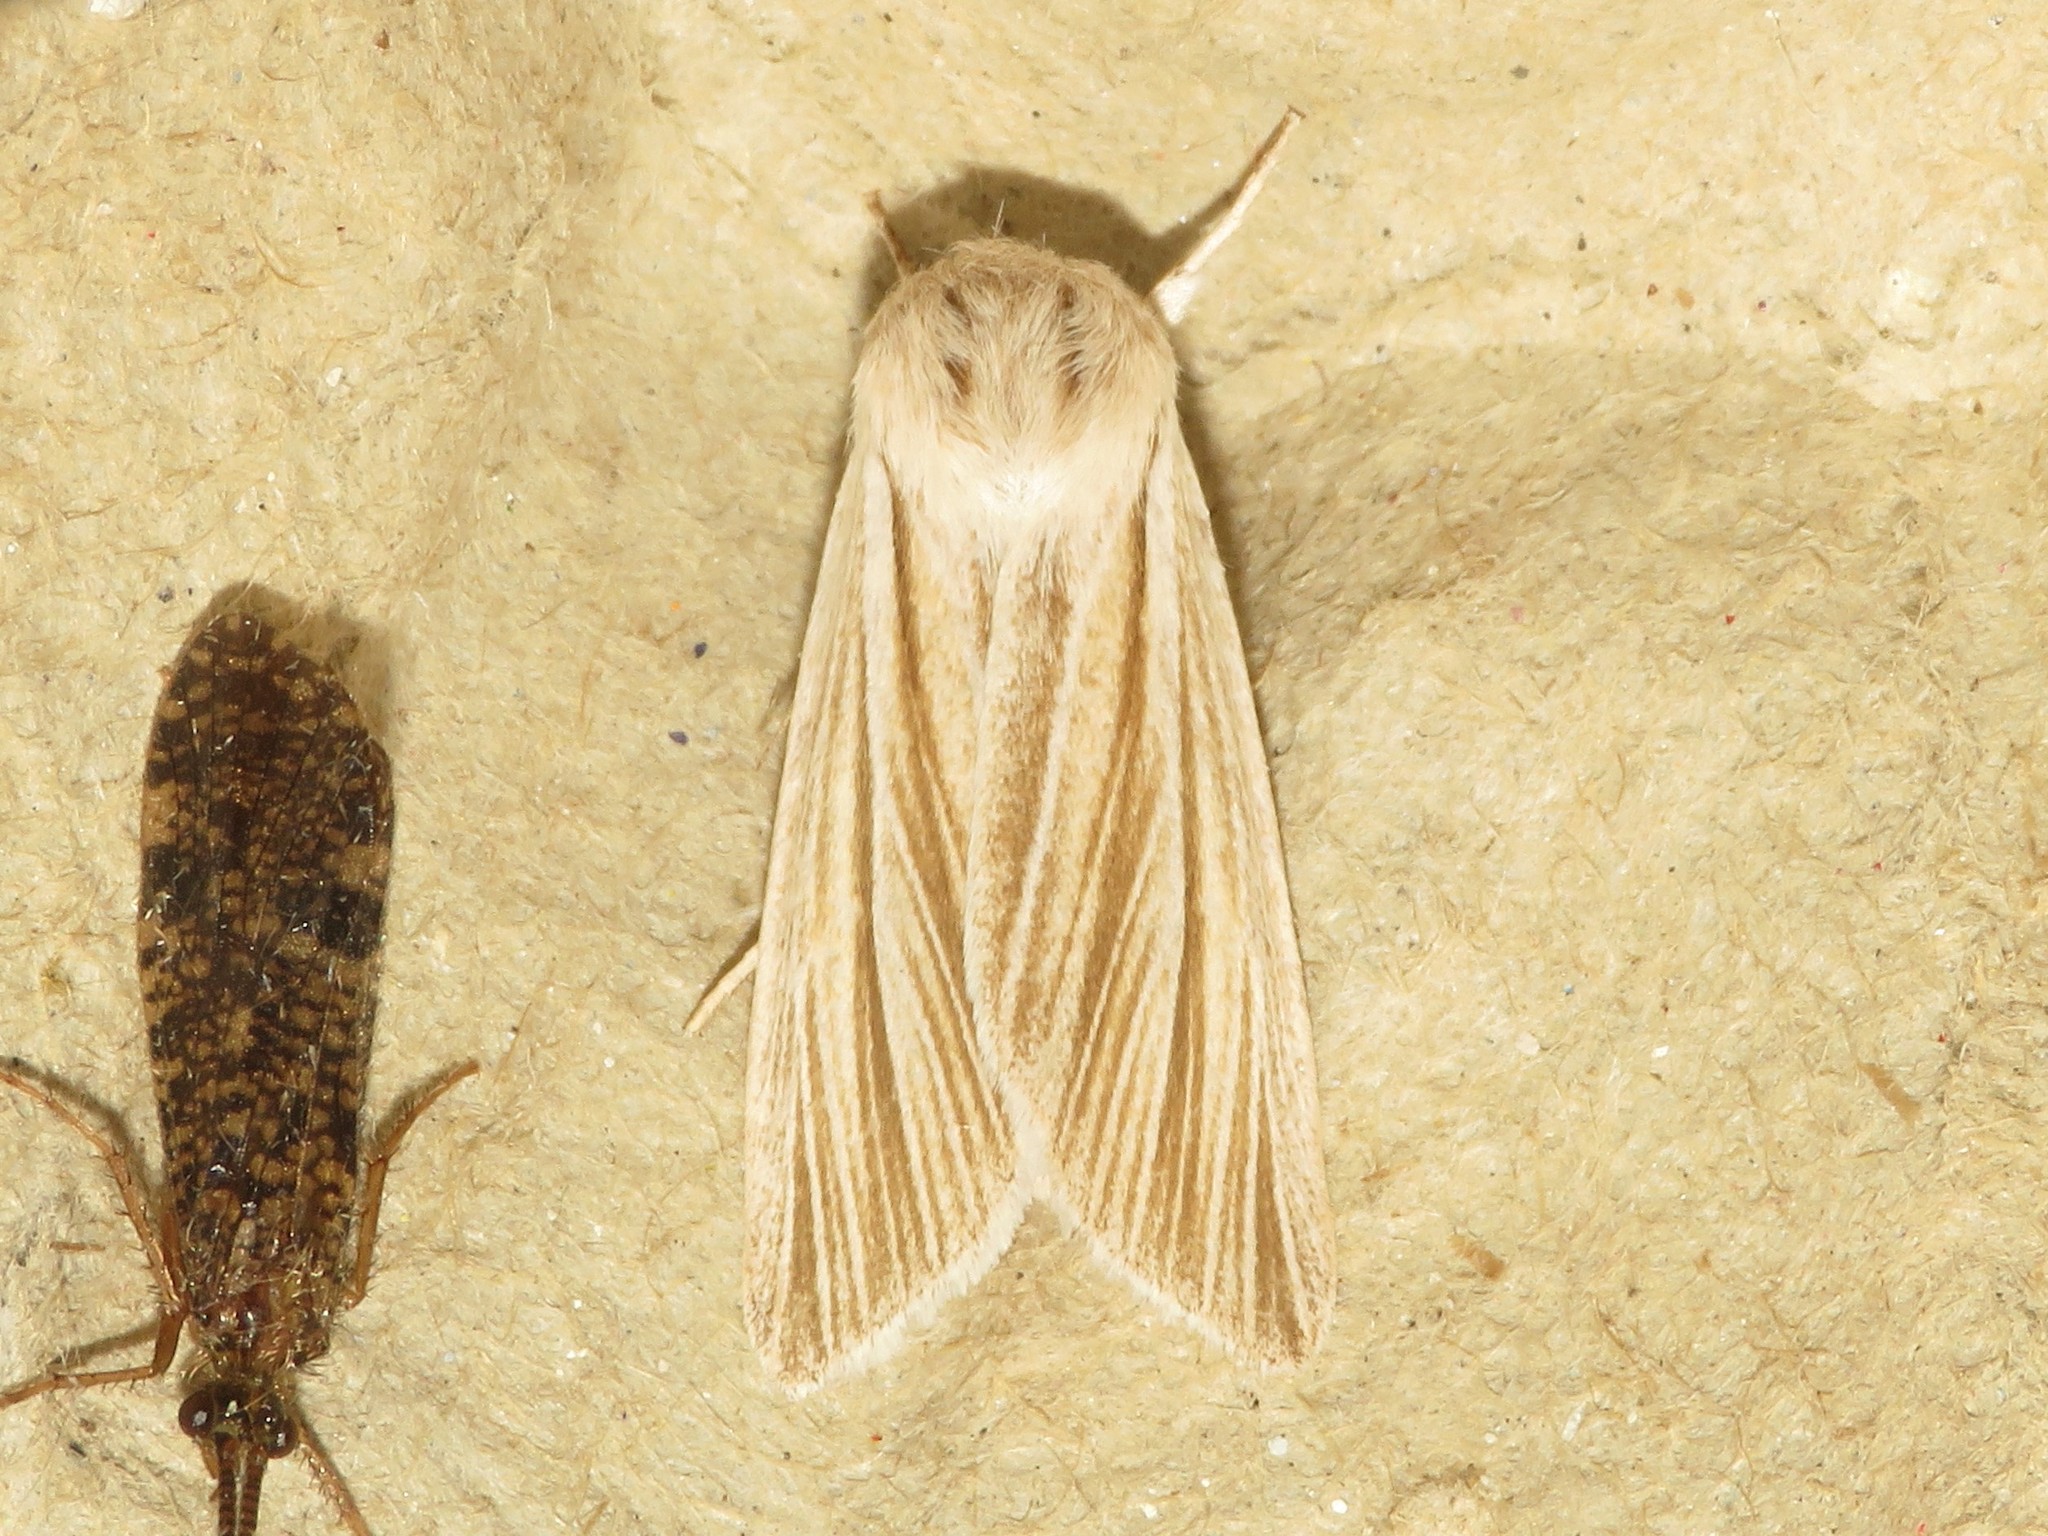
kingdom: Animalia
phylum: Arthropoda
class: Insecta
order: Lepidoptera
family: Noctuidae
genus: Acronicta
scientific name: Acronicta insularis
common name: Henry's marsh moth
